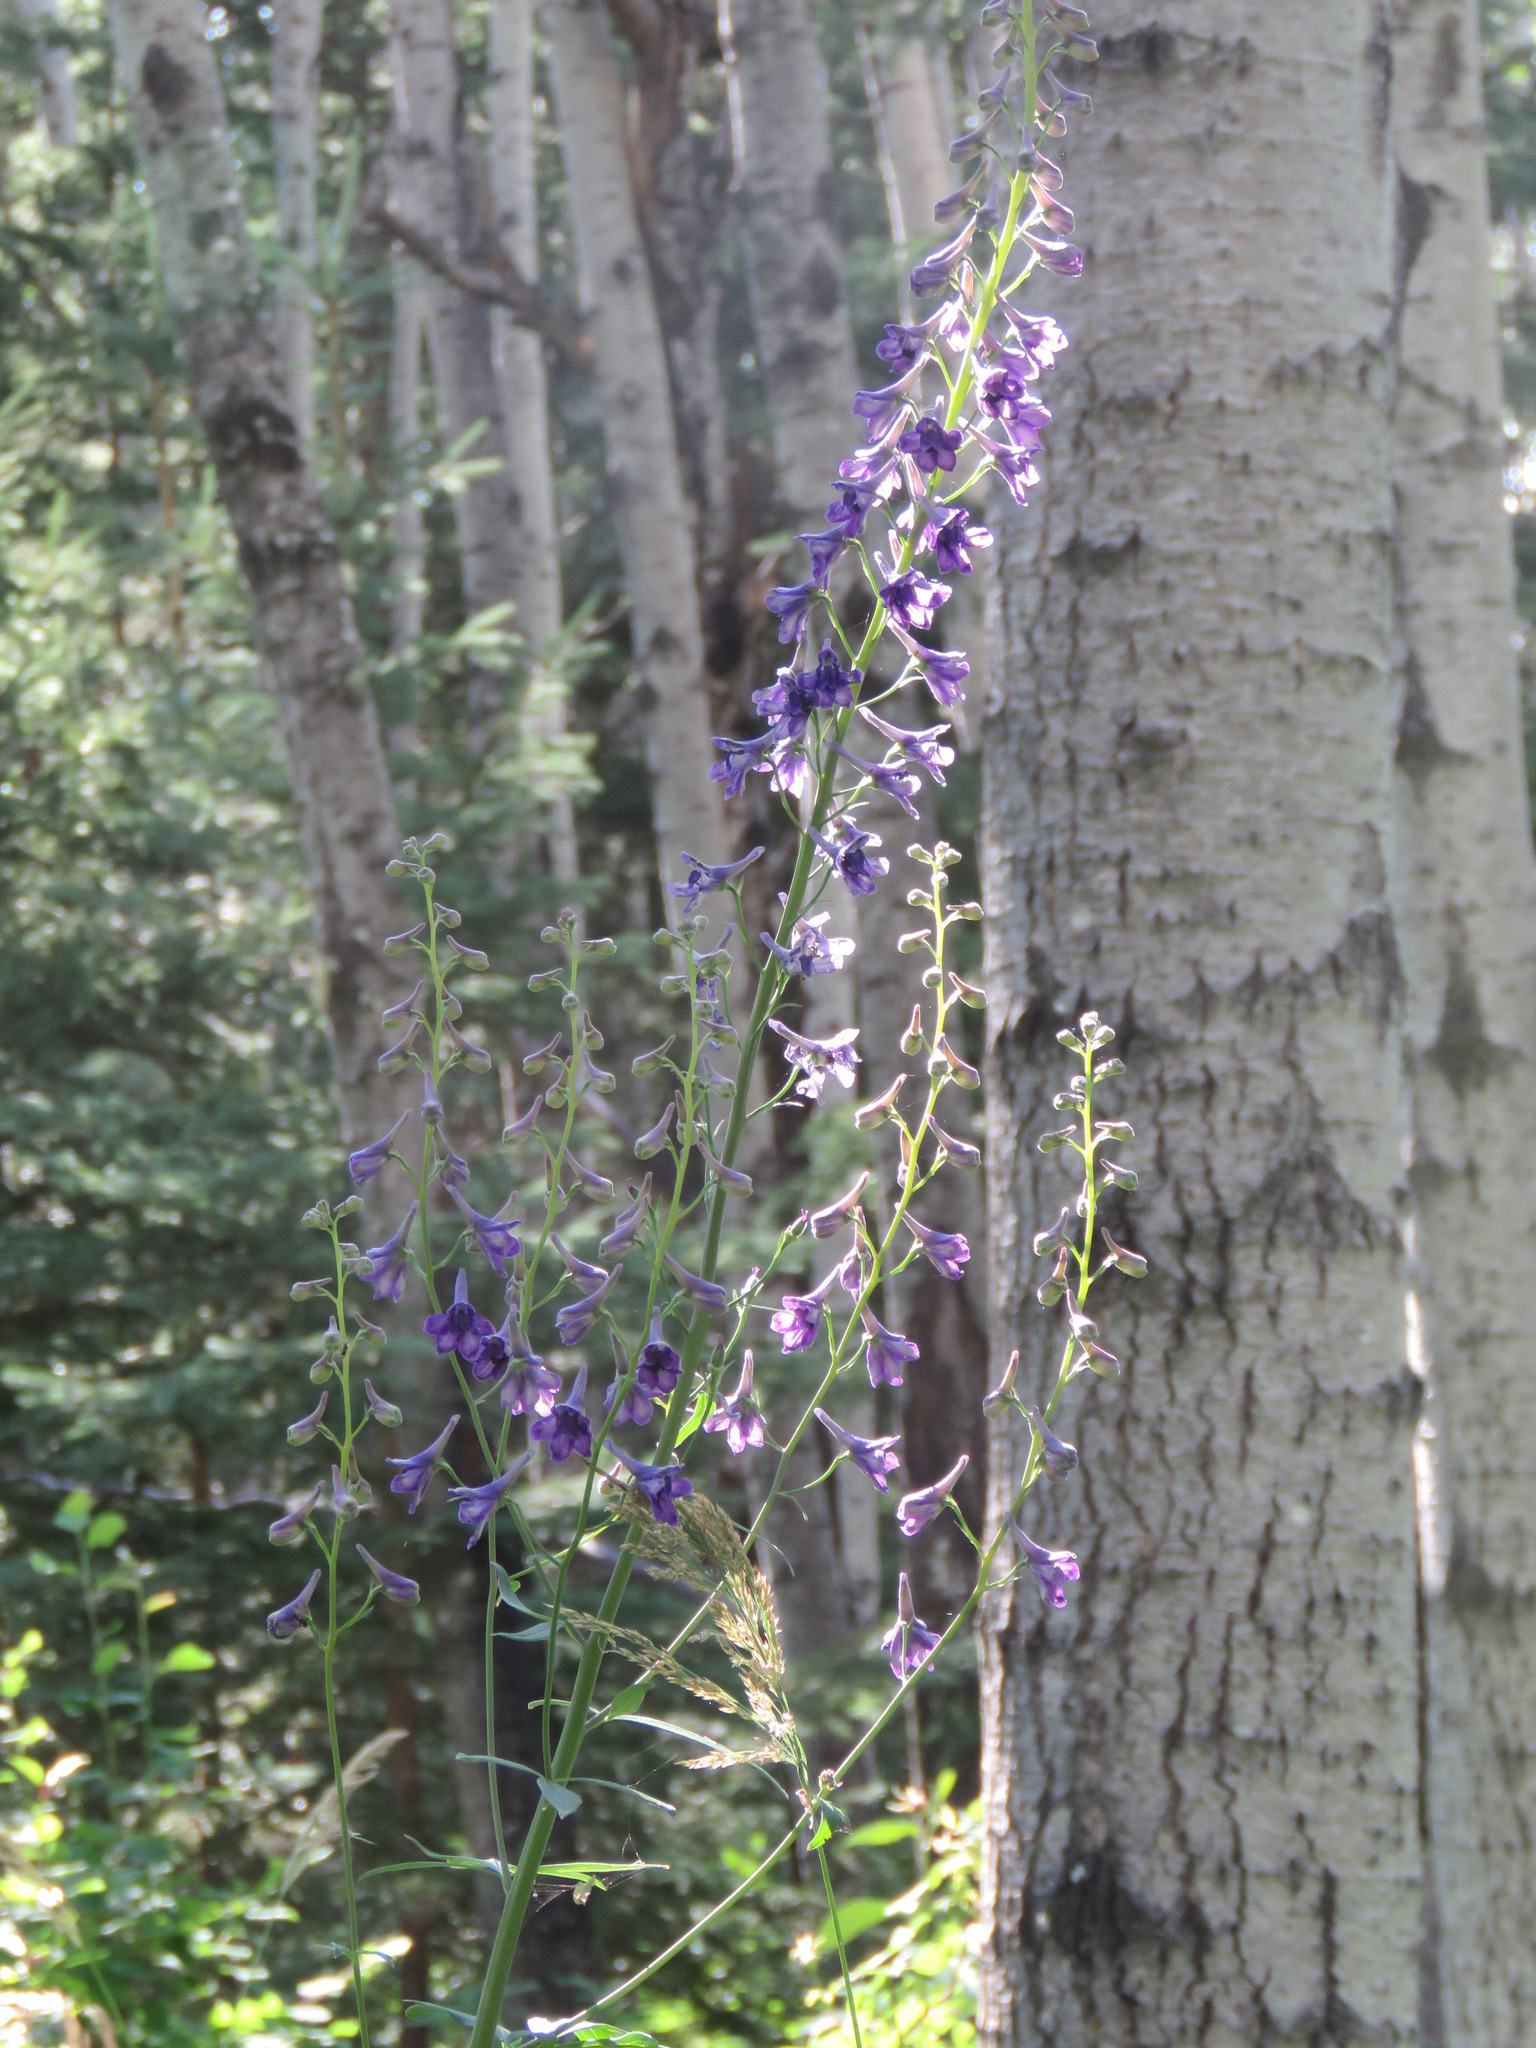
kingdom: Plantae
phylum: Tracheophyta
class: Magnoliopsida
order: Ranunculales
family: Ranunculaceae
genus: Delphinium
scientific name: Delphinium glaucum
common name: Brown's larkspur
